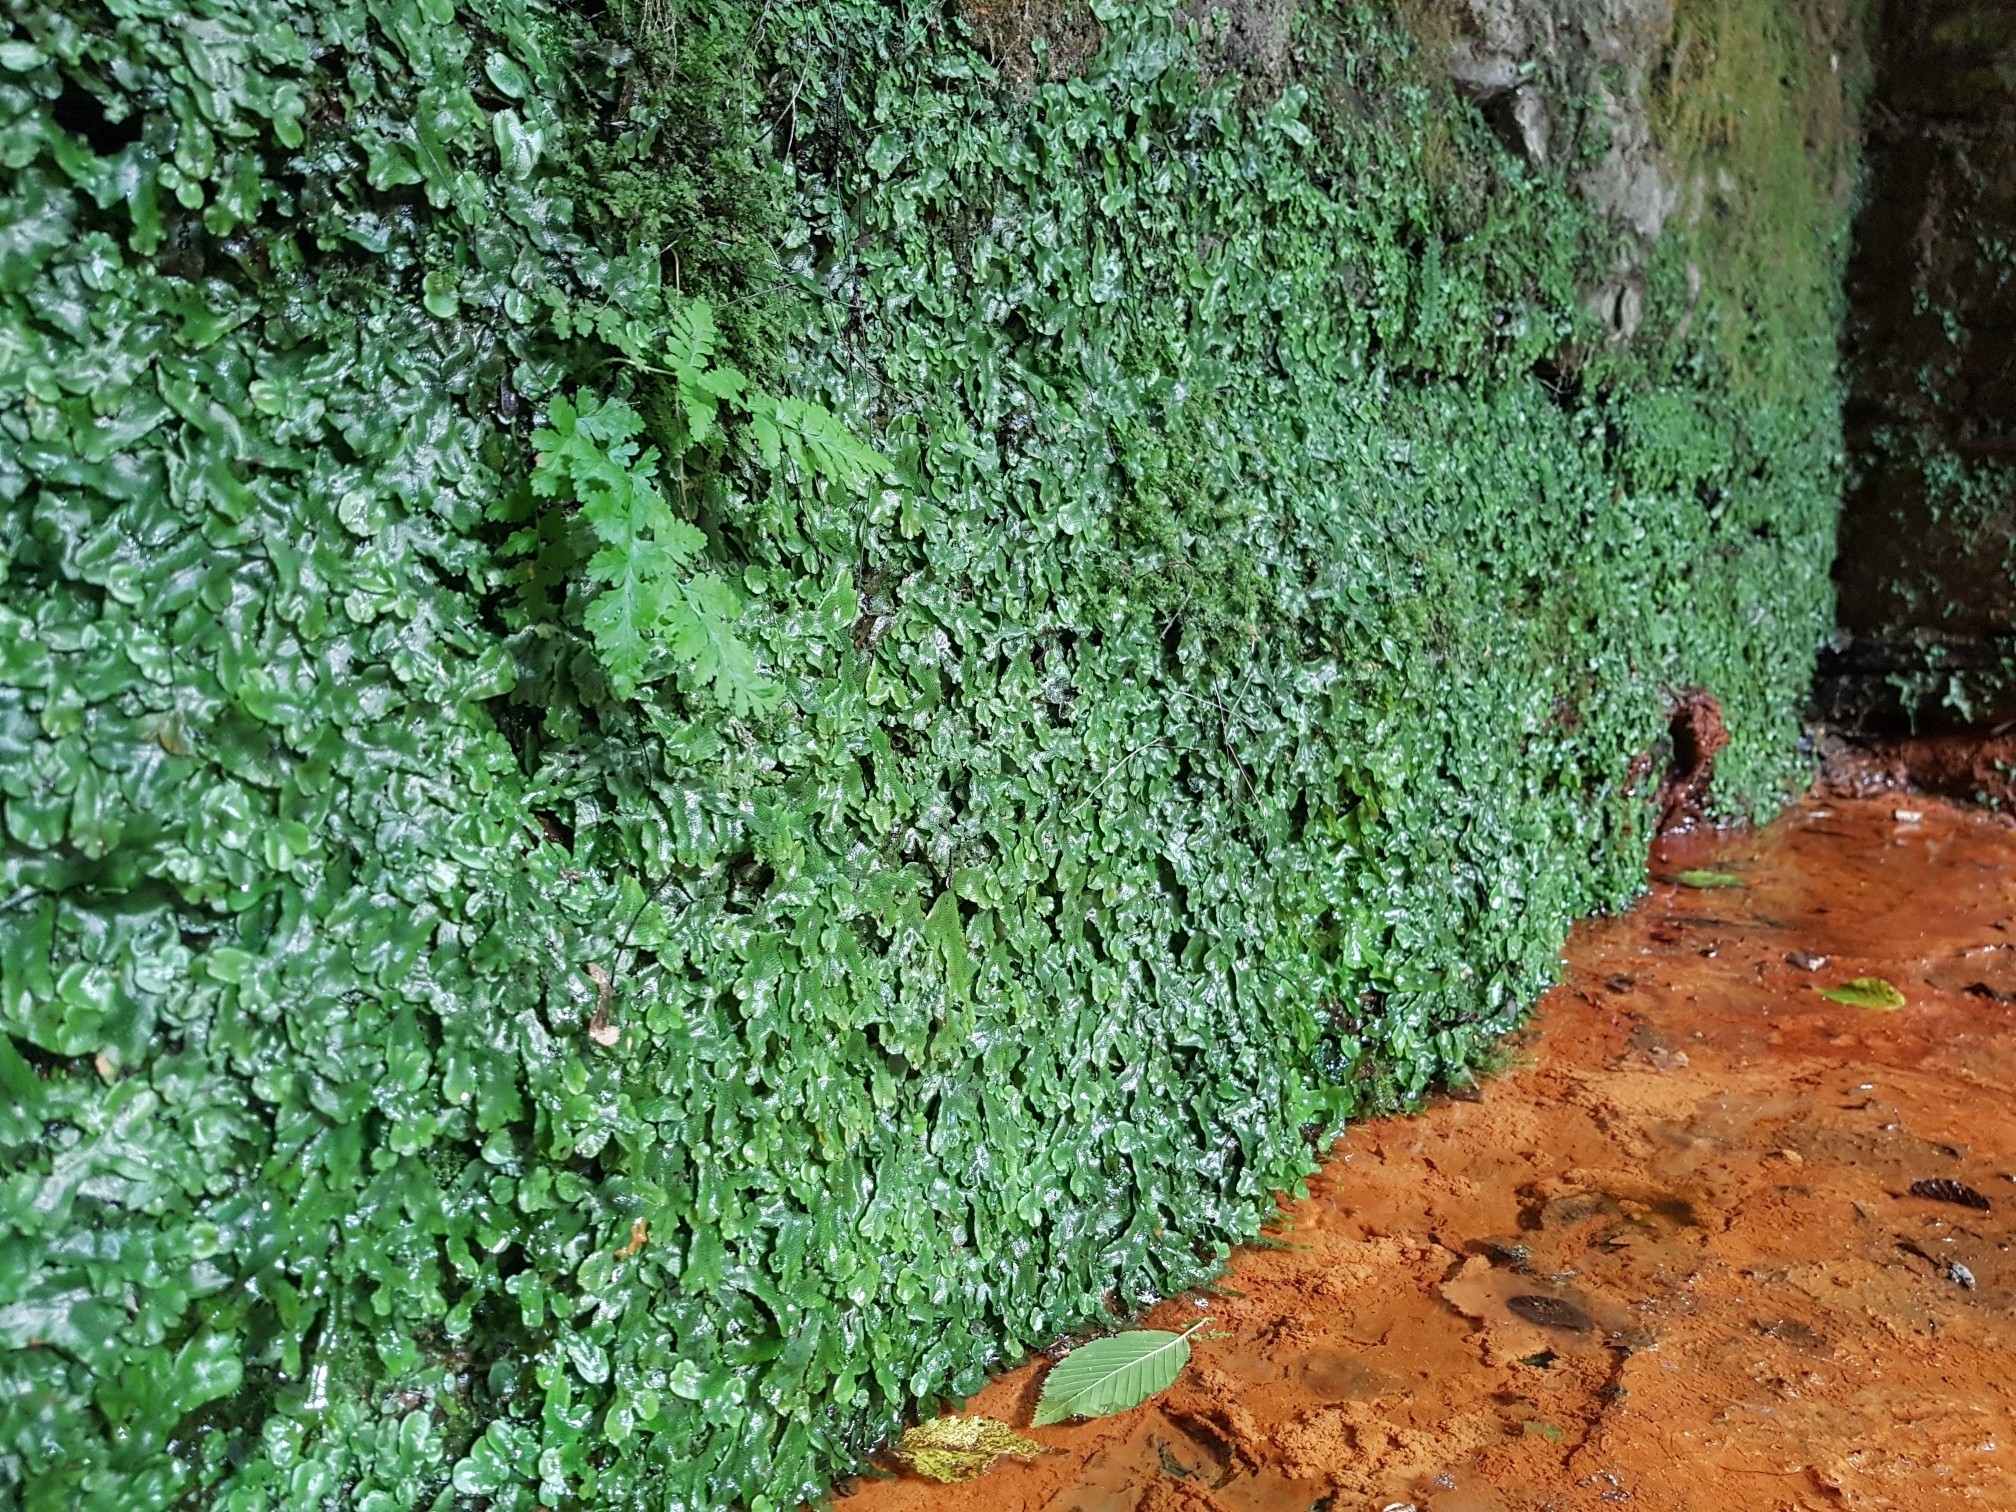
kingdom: Plantae
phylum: Marchantiophyta
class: Marchantiopsida
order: Marchantiales
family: Conocephalaceae
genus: Conocephalum
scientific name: Conocephalum conicum
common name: Great scented liverwort
